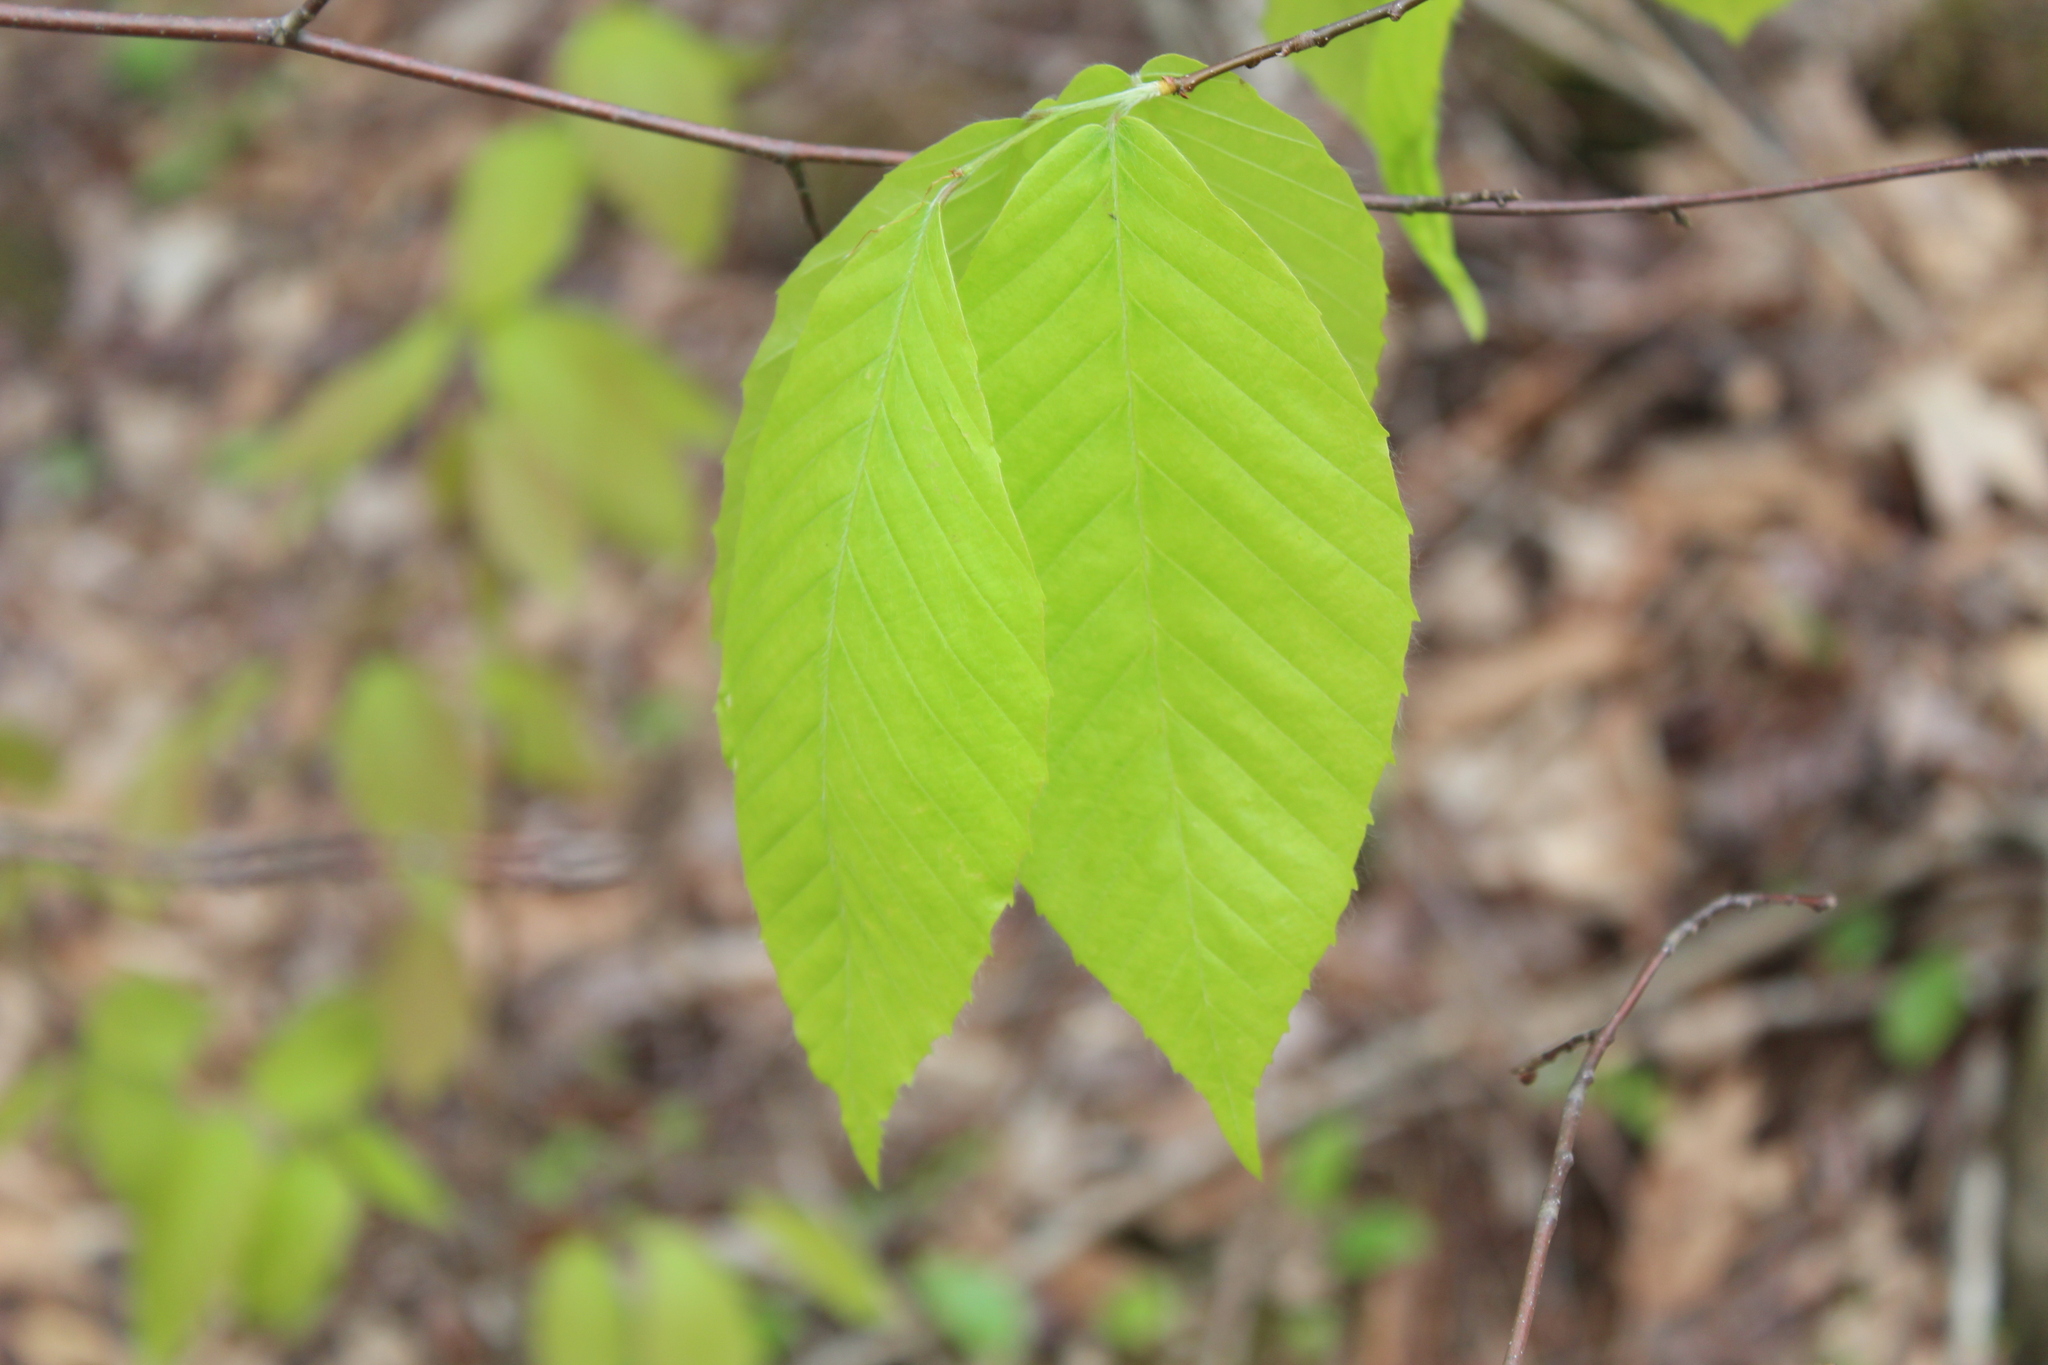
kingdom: Plantae
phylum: Tracheophyta
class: Magnoliopsida
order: Fagales
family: Fagaceae
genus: Fagus
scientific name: Fagus grandifolia
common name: American beech
